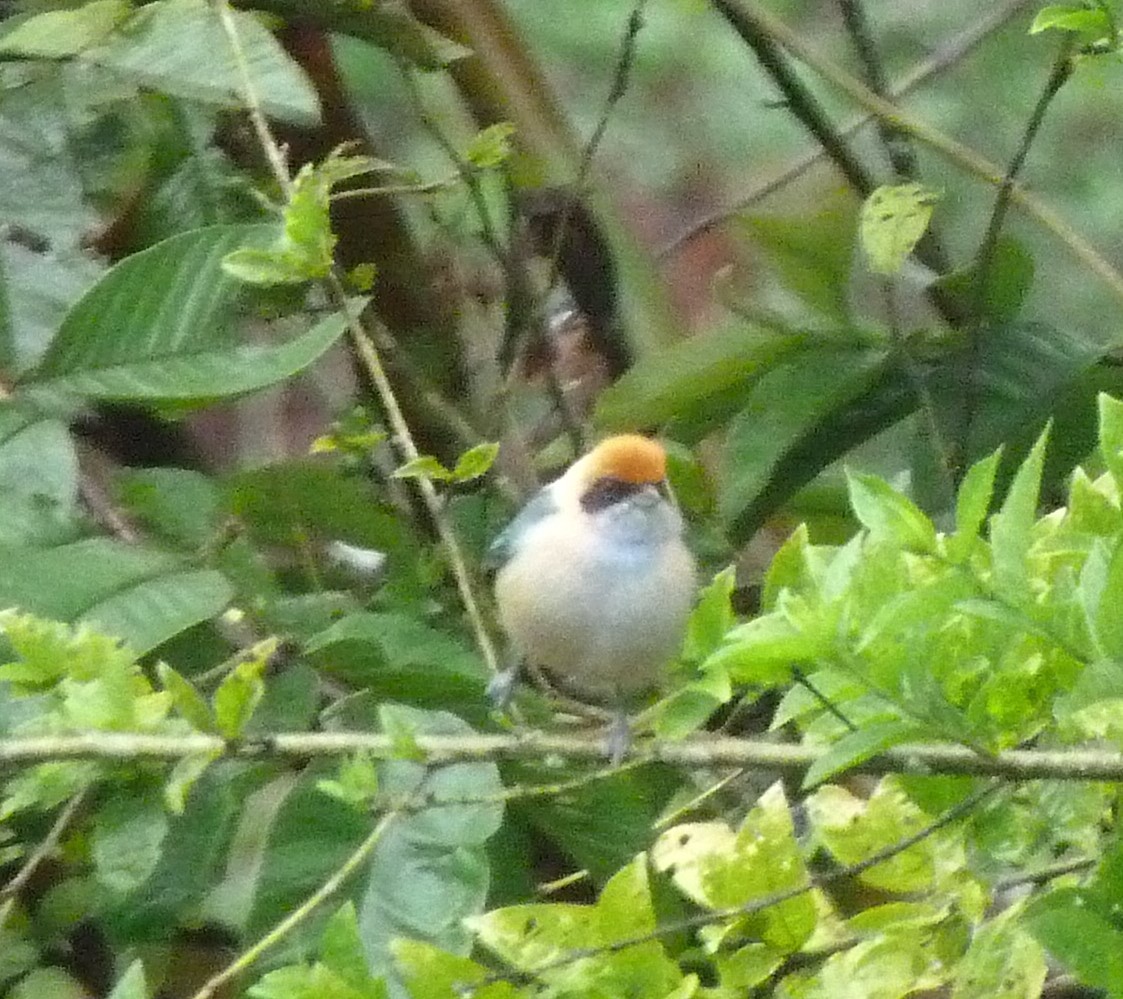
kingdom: Animalia
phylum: Chordata
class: Aves
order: Passeriformes
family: Thraupidae
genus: Stilpnia
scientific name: Stilpnia vitriolina
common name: Scrub tanager
